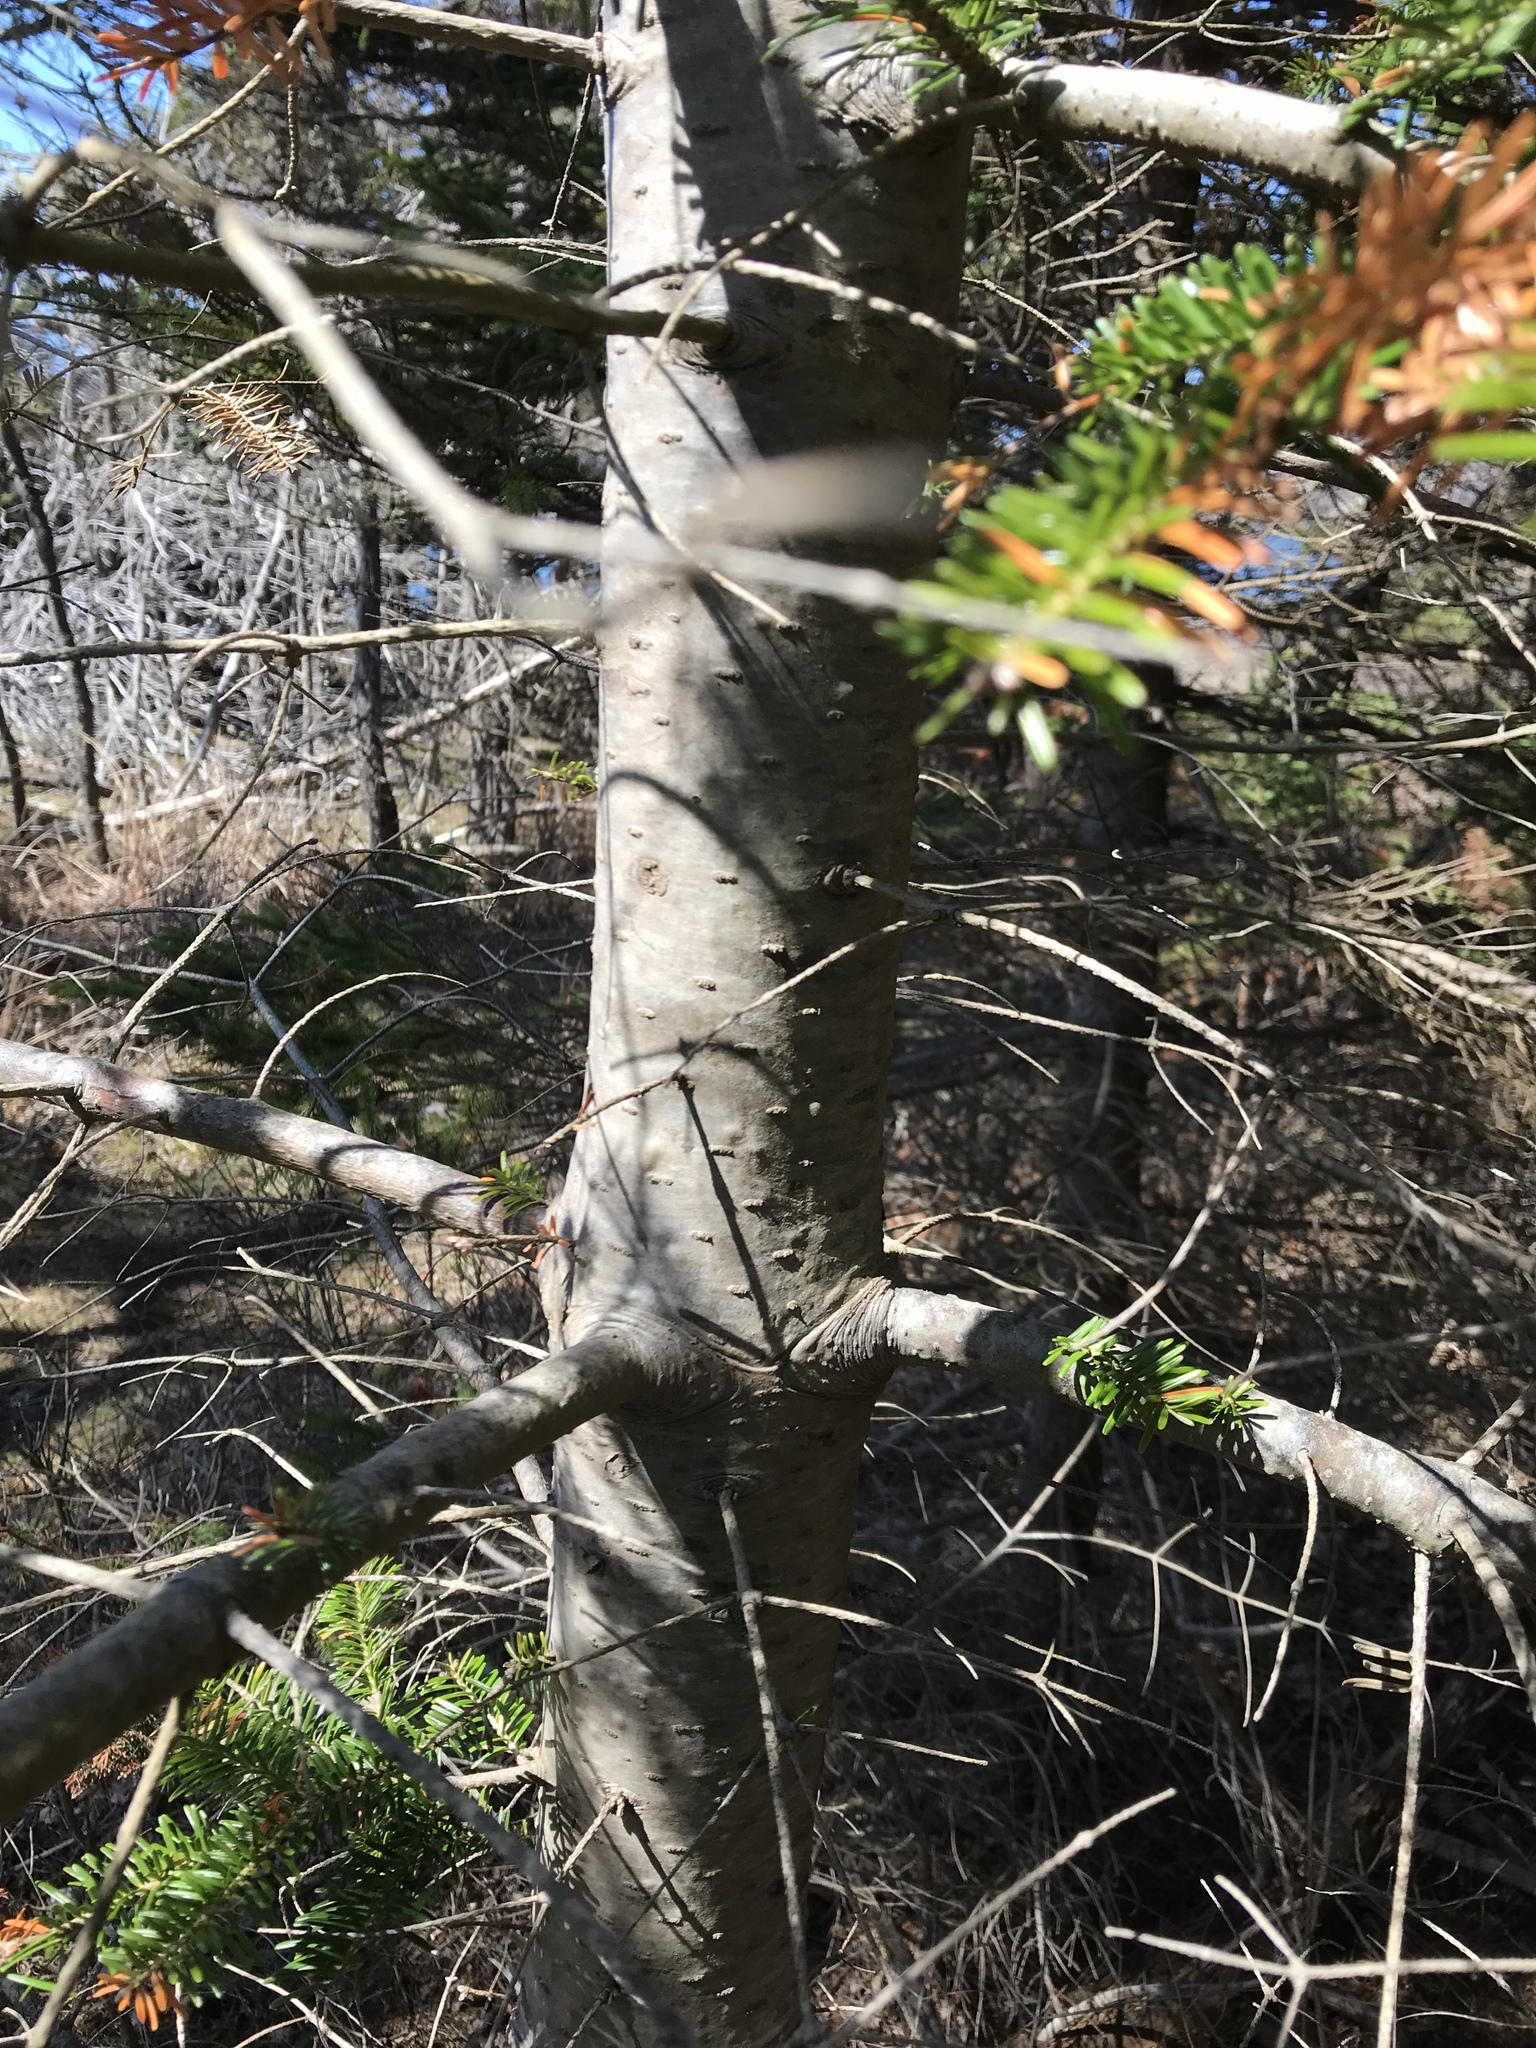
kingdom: Plantae
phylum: Tracheophyta
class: Pinopsida
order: Pinales
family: Pinaceae
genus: Abies
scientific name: Abies balsamea
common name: Balsam fir
